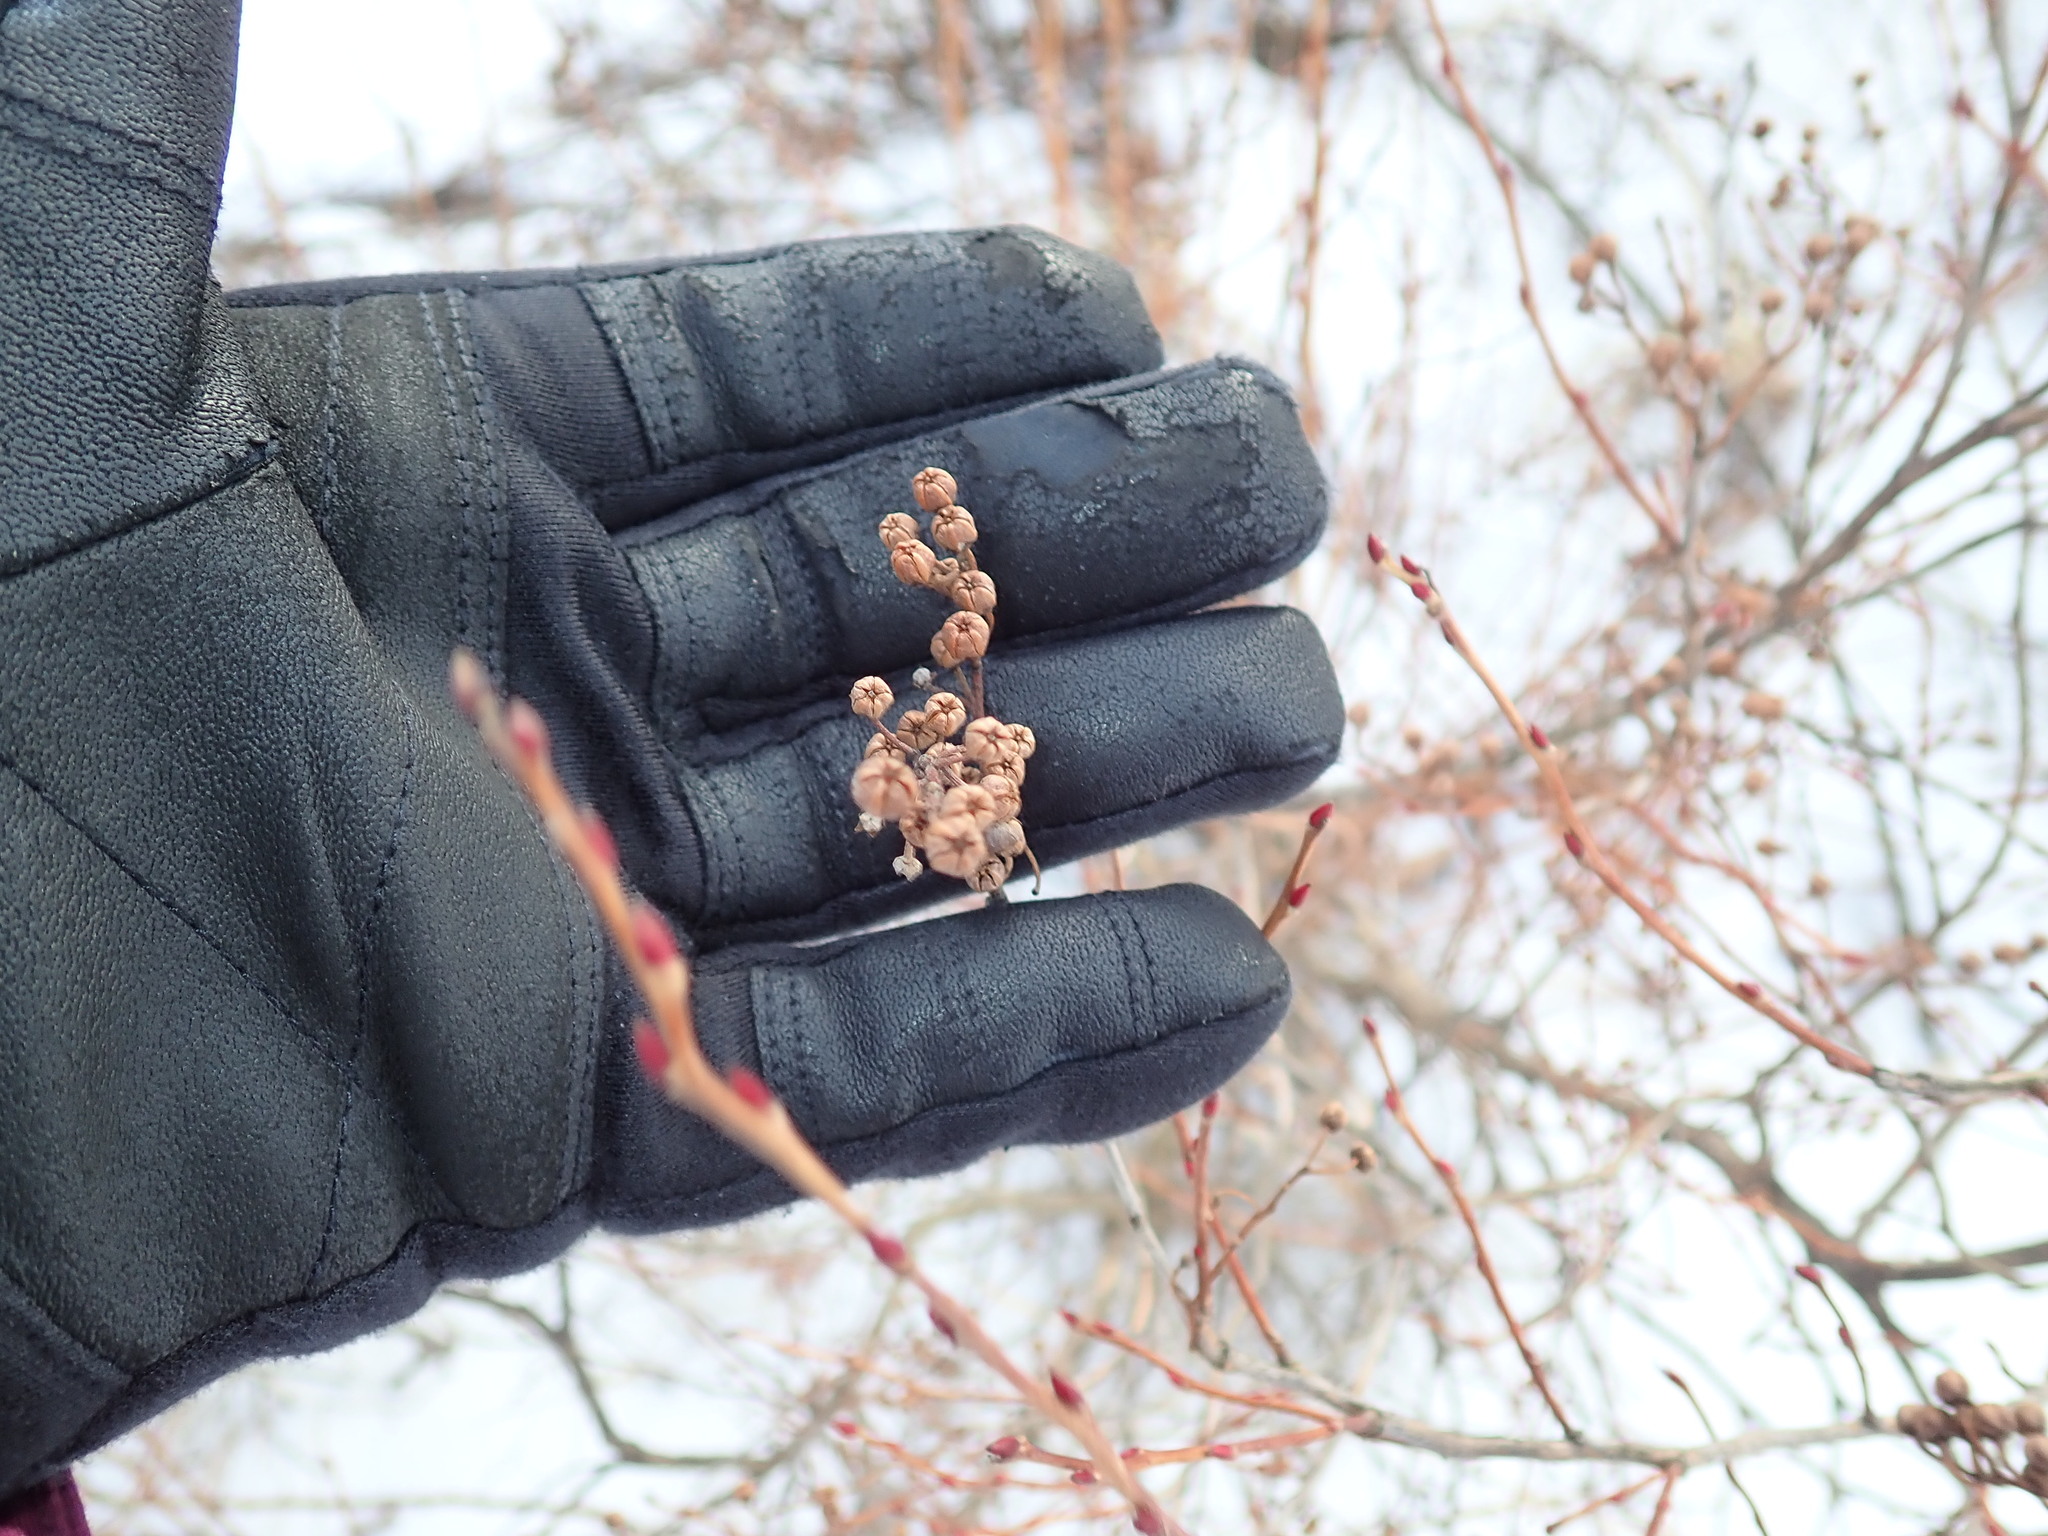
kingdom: Plantae
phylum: Tracheophyta
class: Magnoliopsida
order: Ericales
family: Ericaceae
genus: Lyonia
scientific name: Lyonia ligustrina
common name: Maleberry
